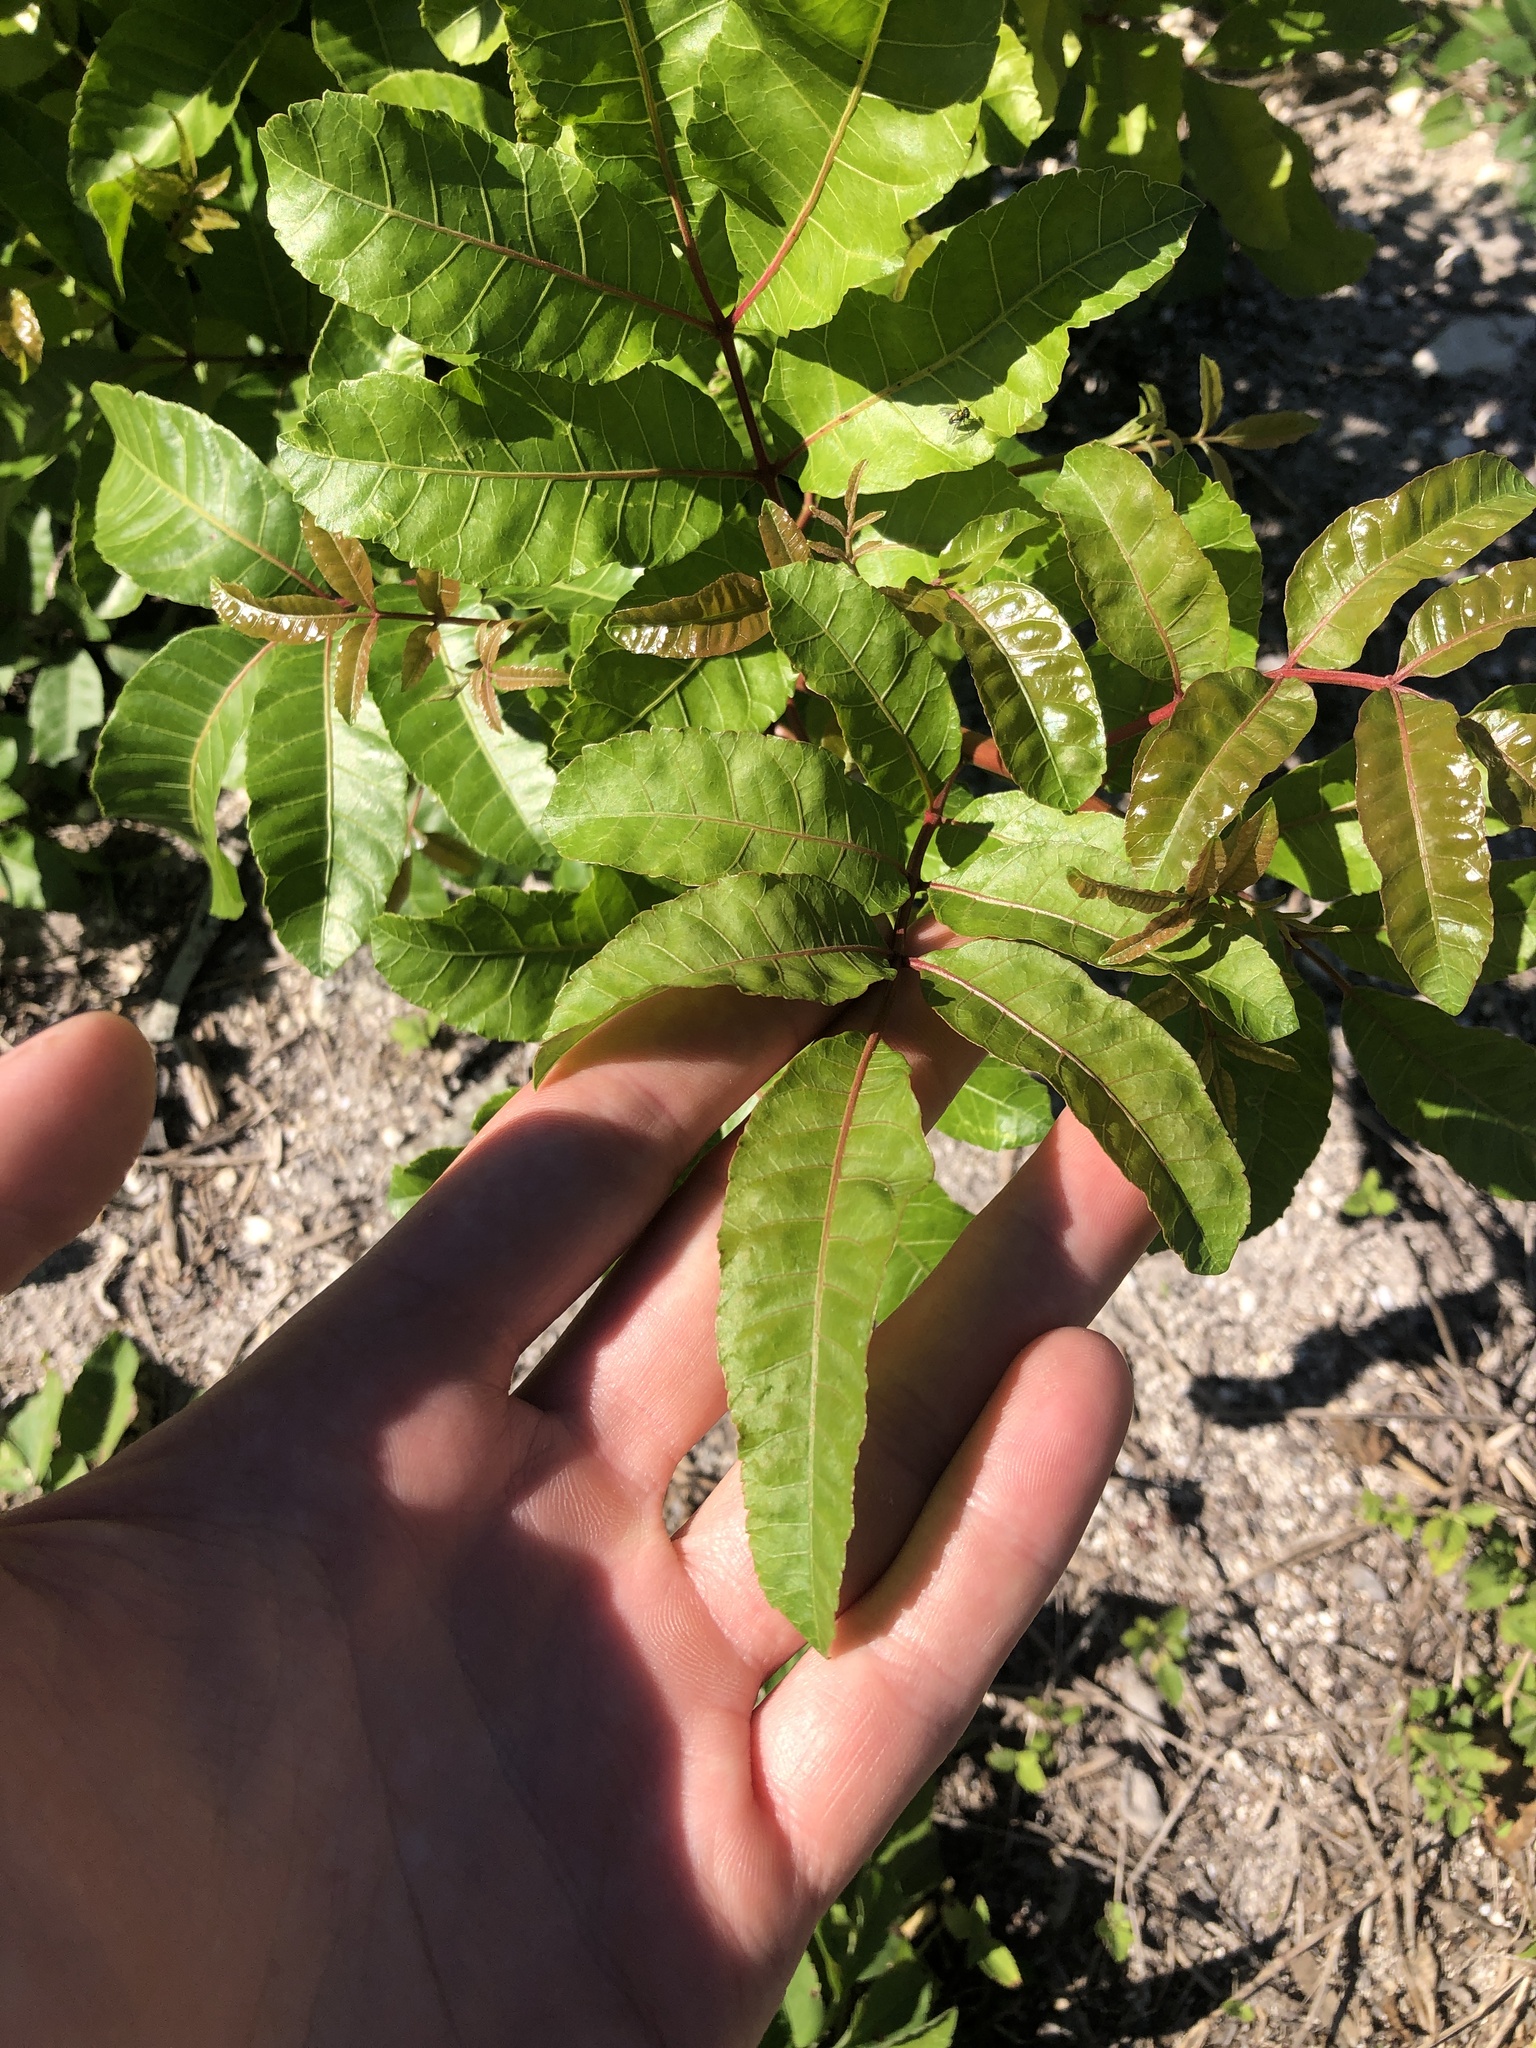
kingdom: Plantae
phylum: Tracheophyta
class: Magnoliopsida
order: Sapindales
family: Anacardiaceae
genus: Schinus
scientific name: Schinus terebinthifolia
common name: Brazilian peppertree
